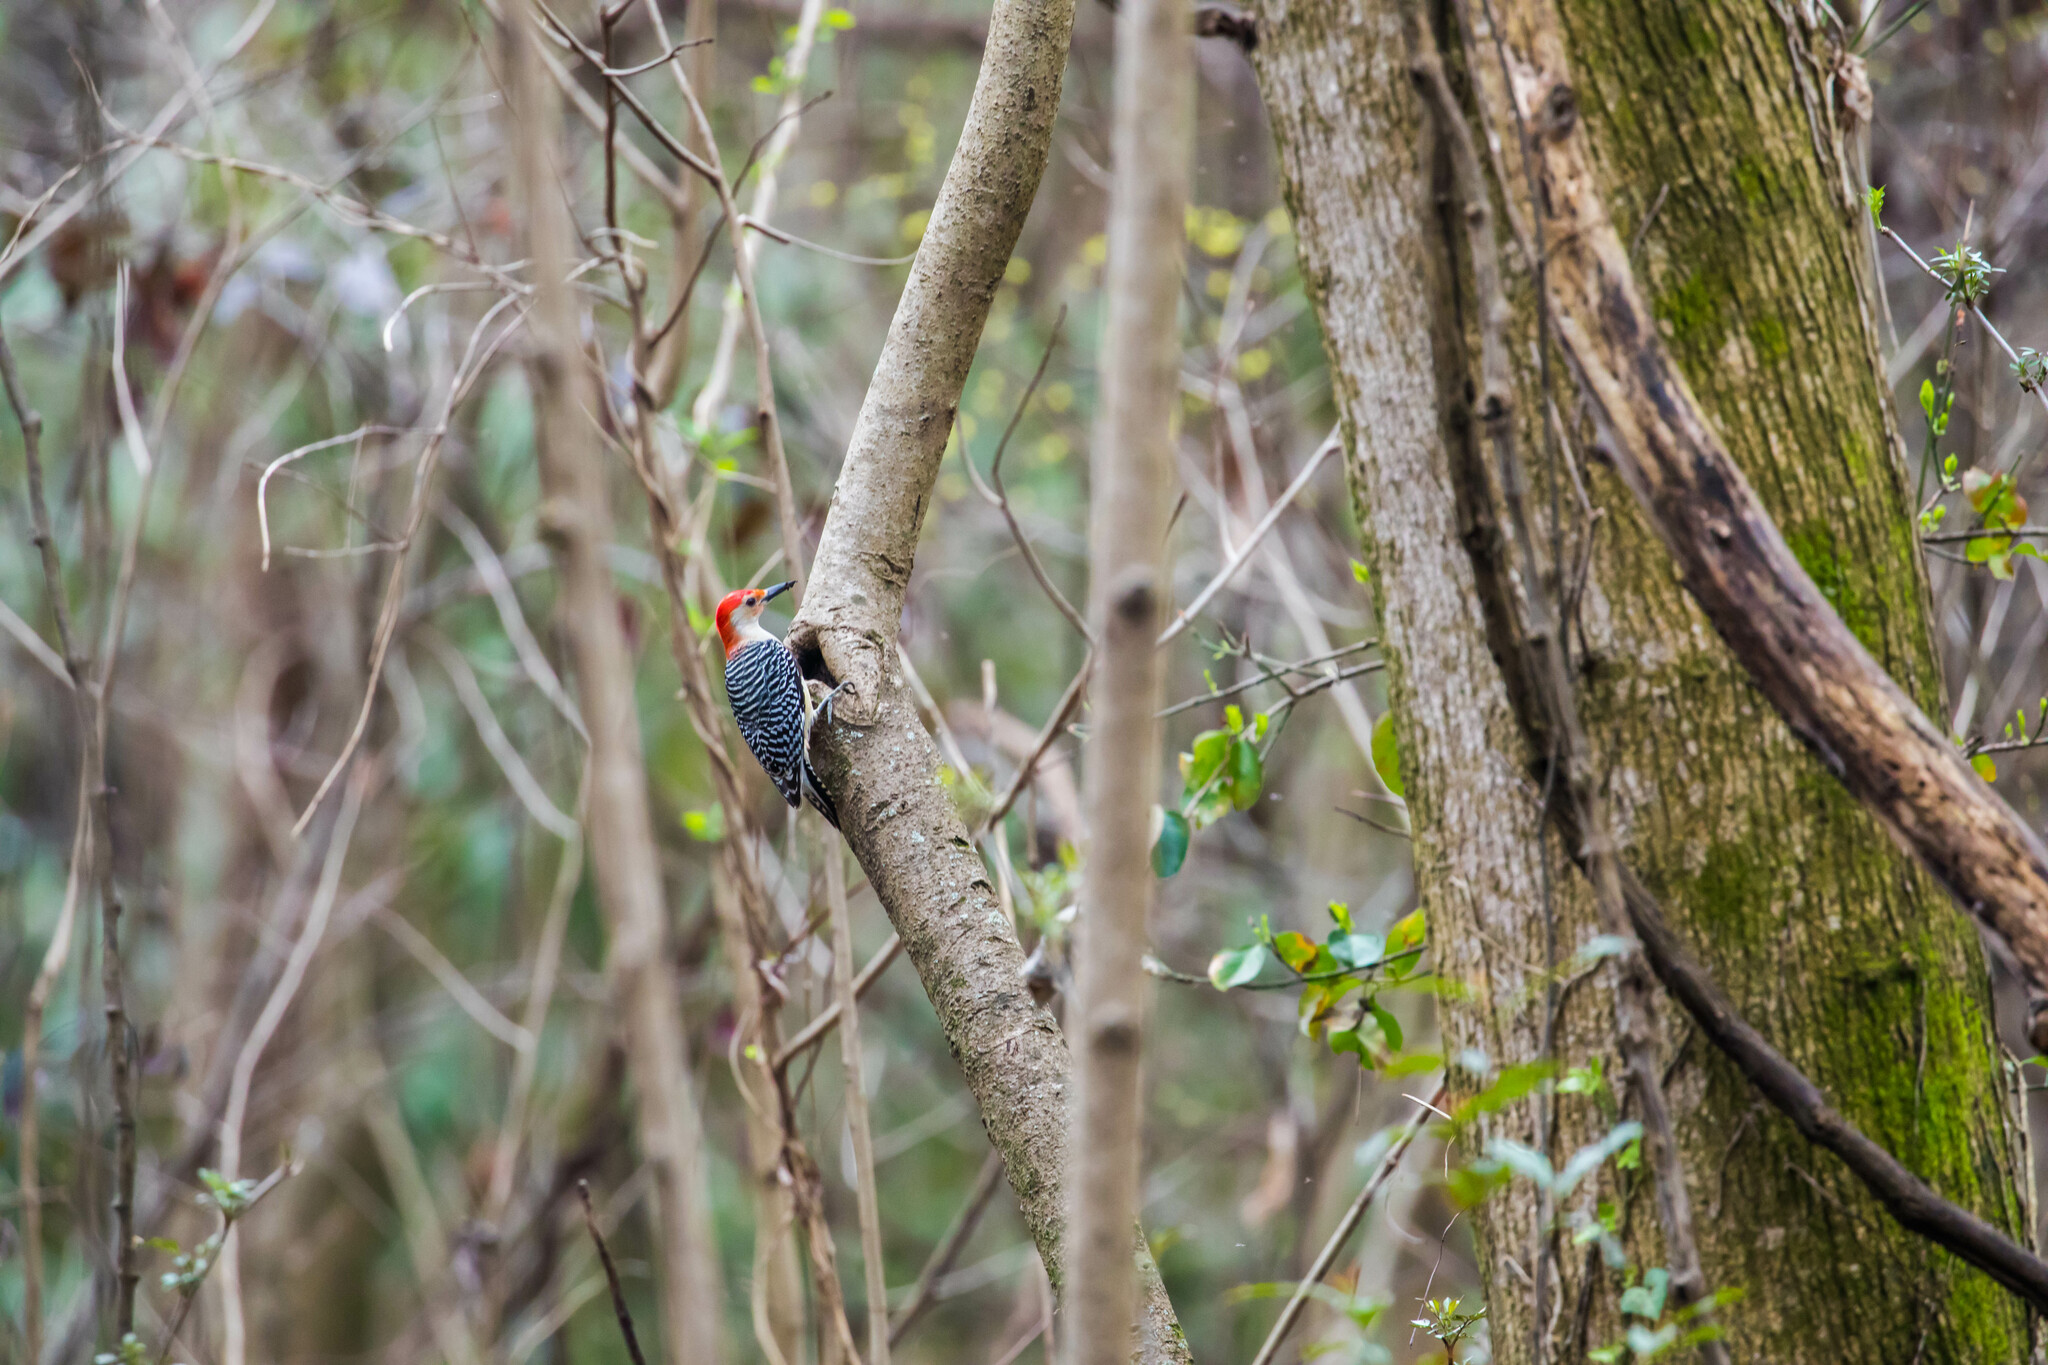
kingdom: Animalia
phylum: Chordata
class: Aves
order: Piciformes
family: Picidae
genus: Melanerpes
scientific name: Melanerpes carolinus
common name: Red-bellied woodpecker
